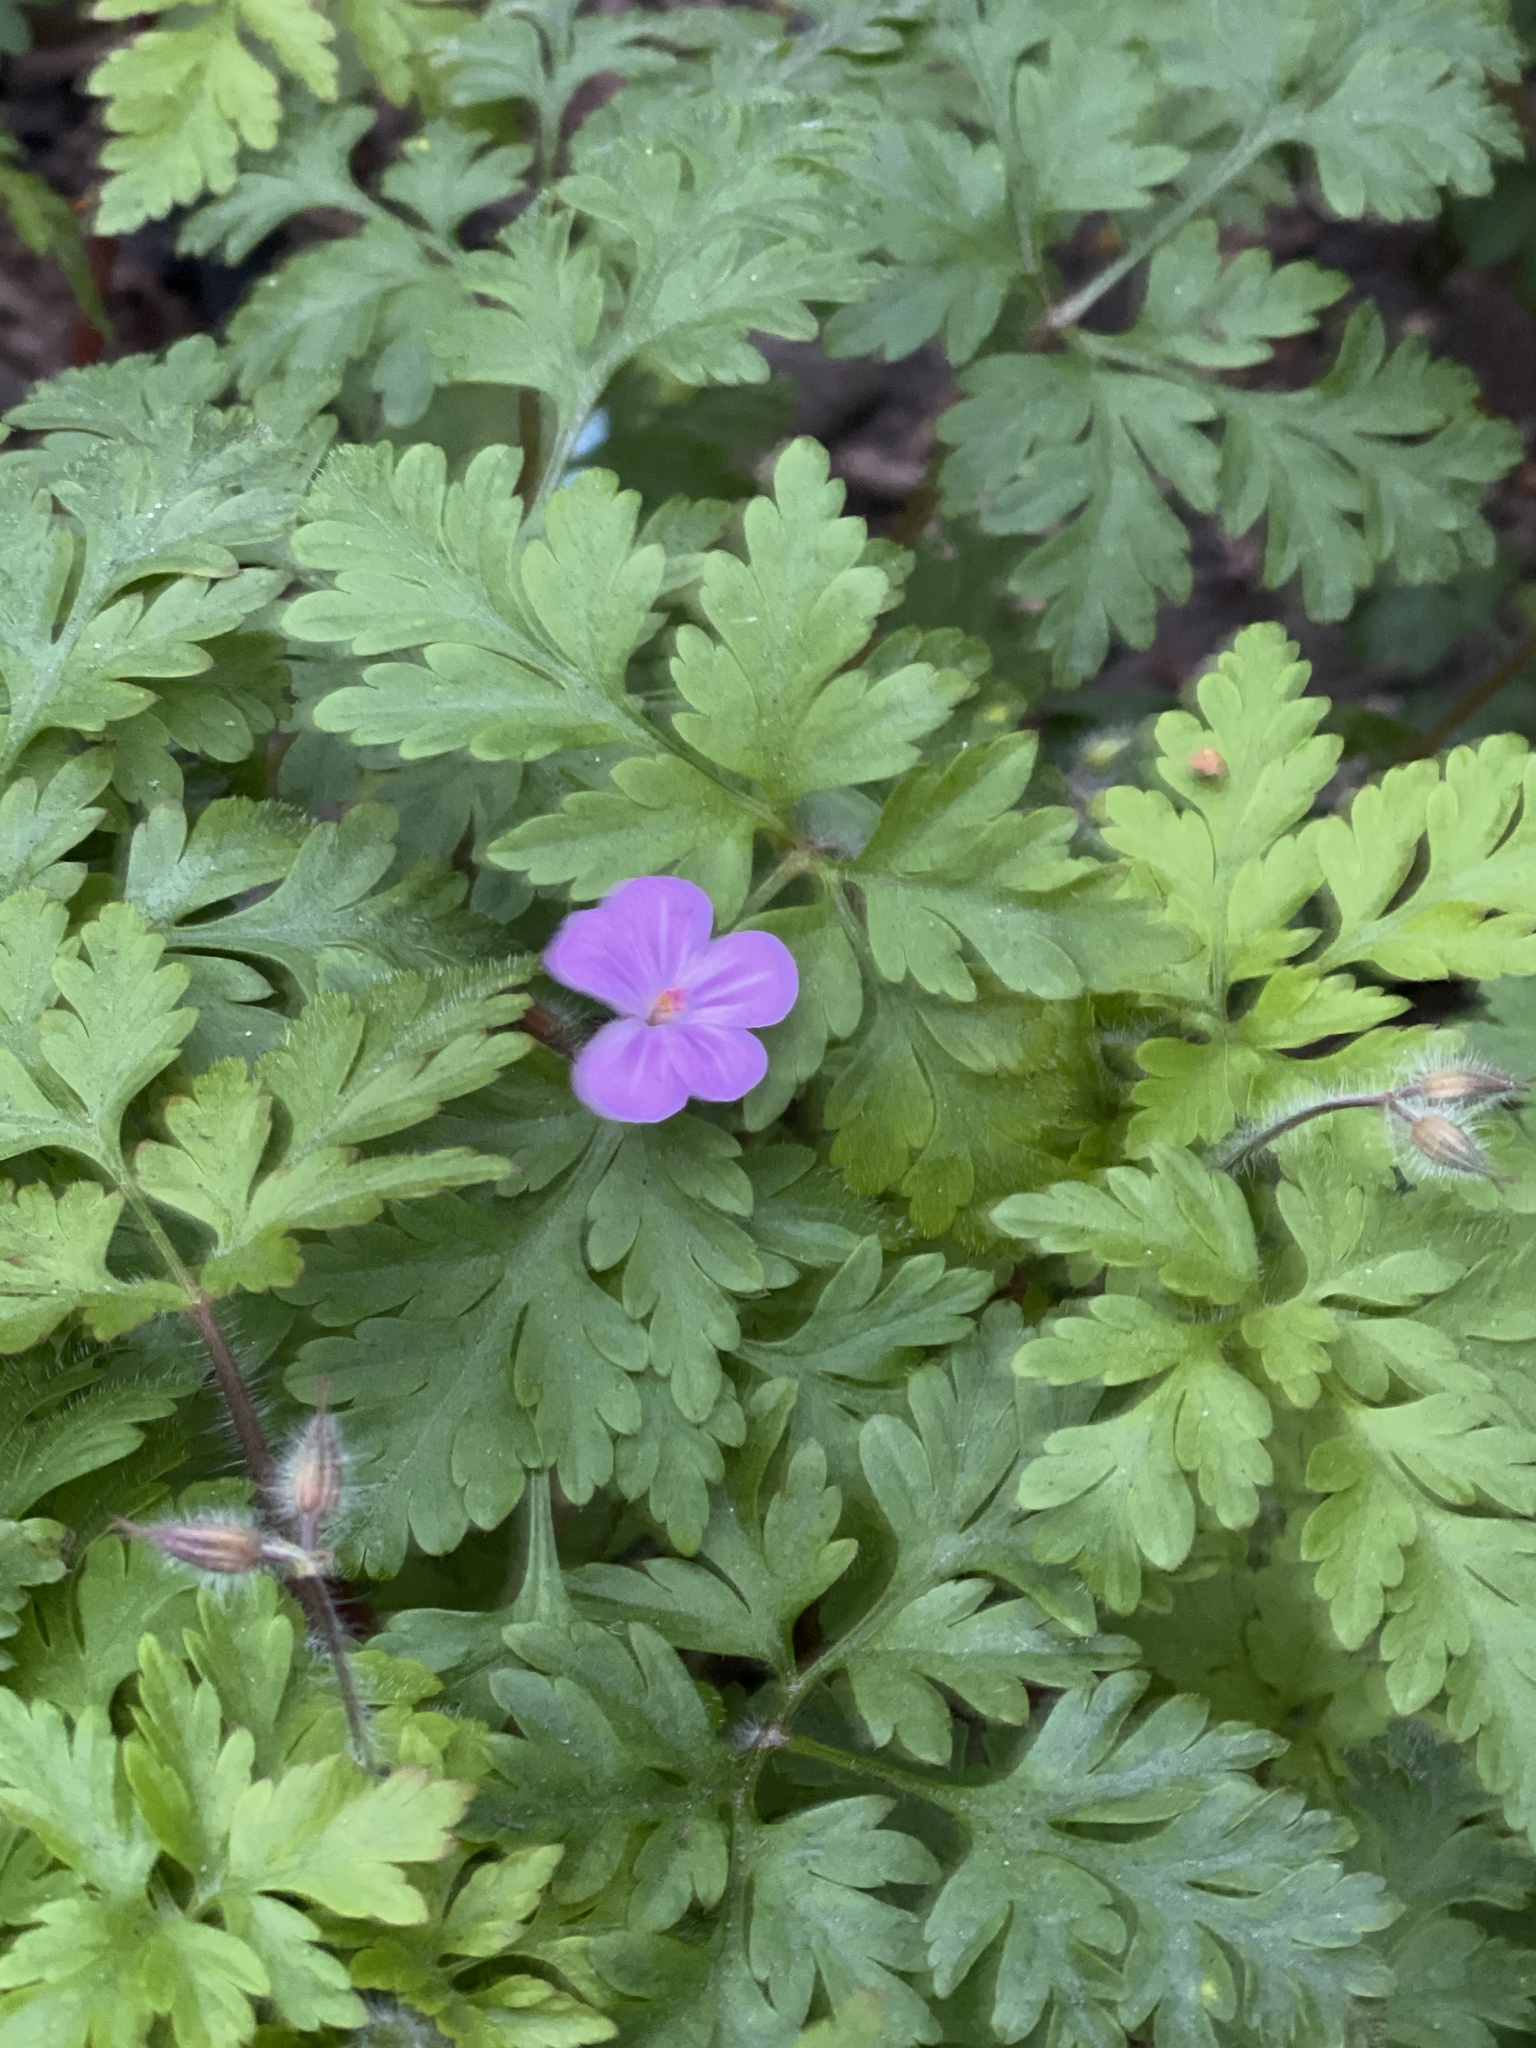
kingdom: Plantae
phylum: Tracheophyta
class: Magnoliopsida
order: Geraniales
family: Geraniaceae
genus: Geranium
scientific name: Geranium robertianum
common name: Herb-robert
